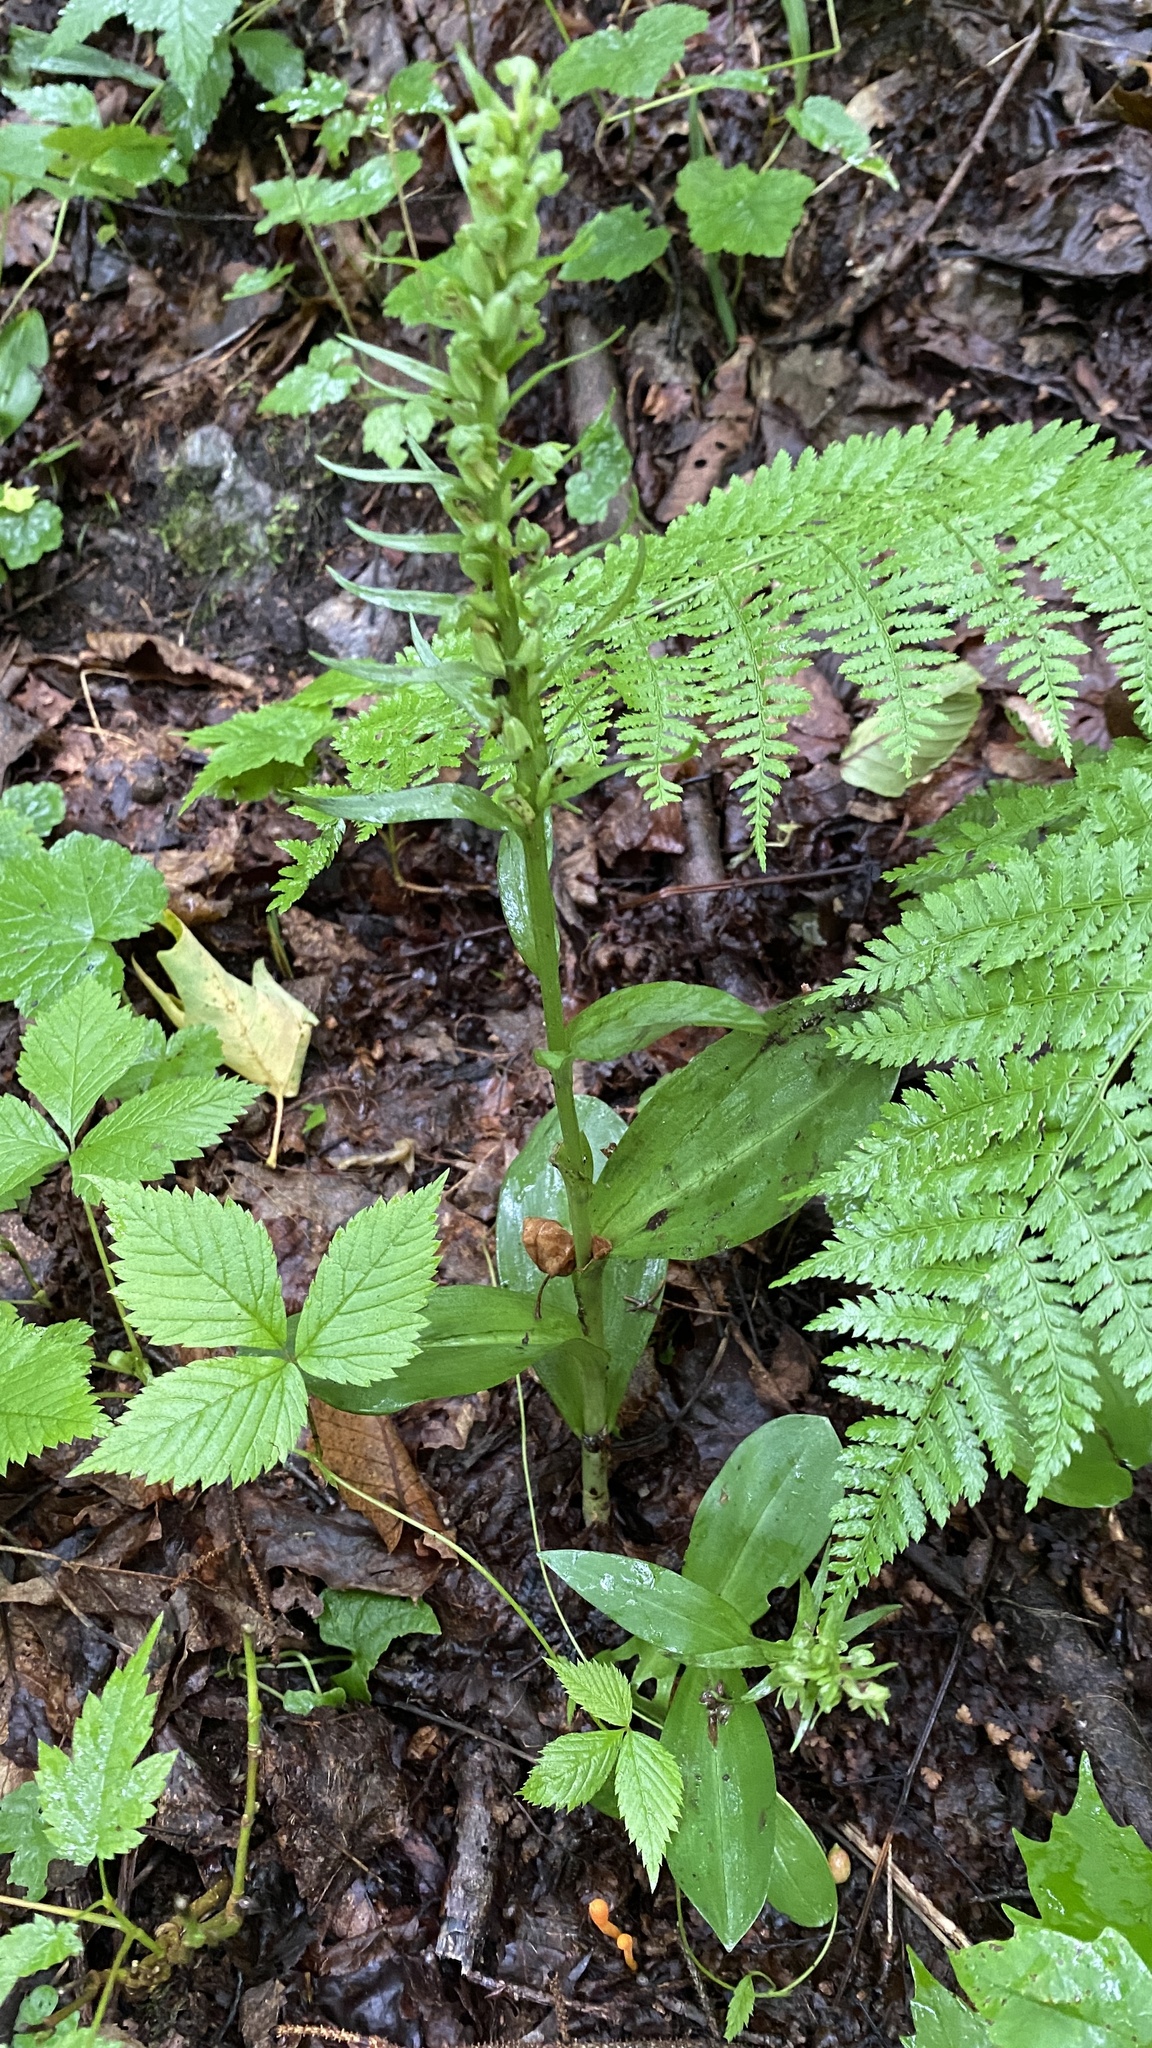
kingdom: Plantae
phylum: Tracheophyta
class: Liliopsida
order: Asparagales
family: Orchidaceae
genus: Dactylorhiza
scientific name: Dactylorhiza viridis
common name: Longbract frog orchid
